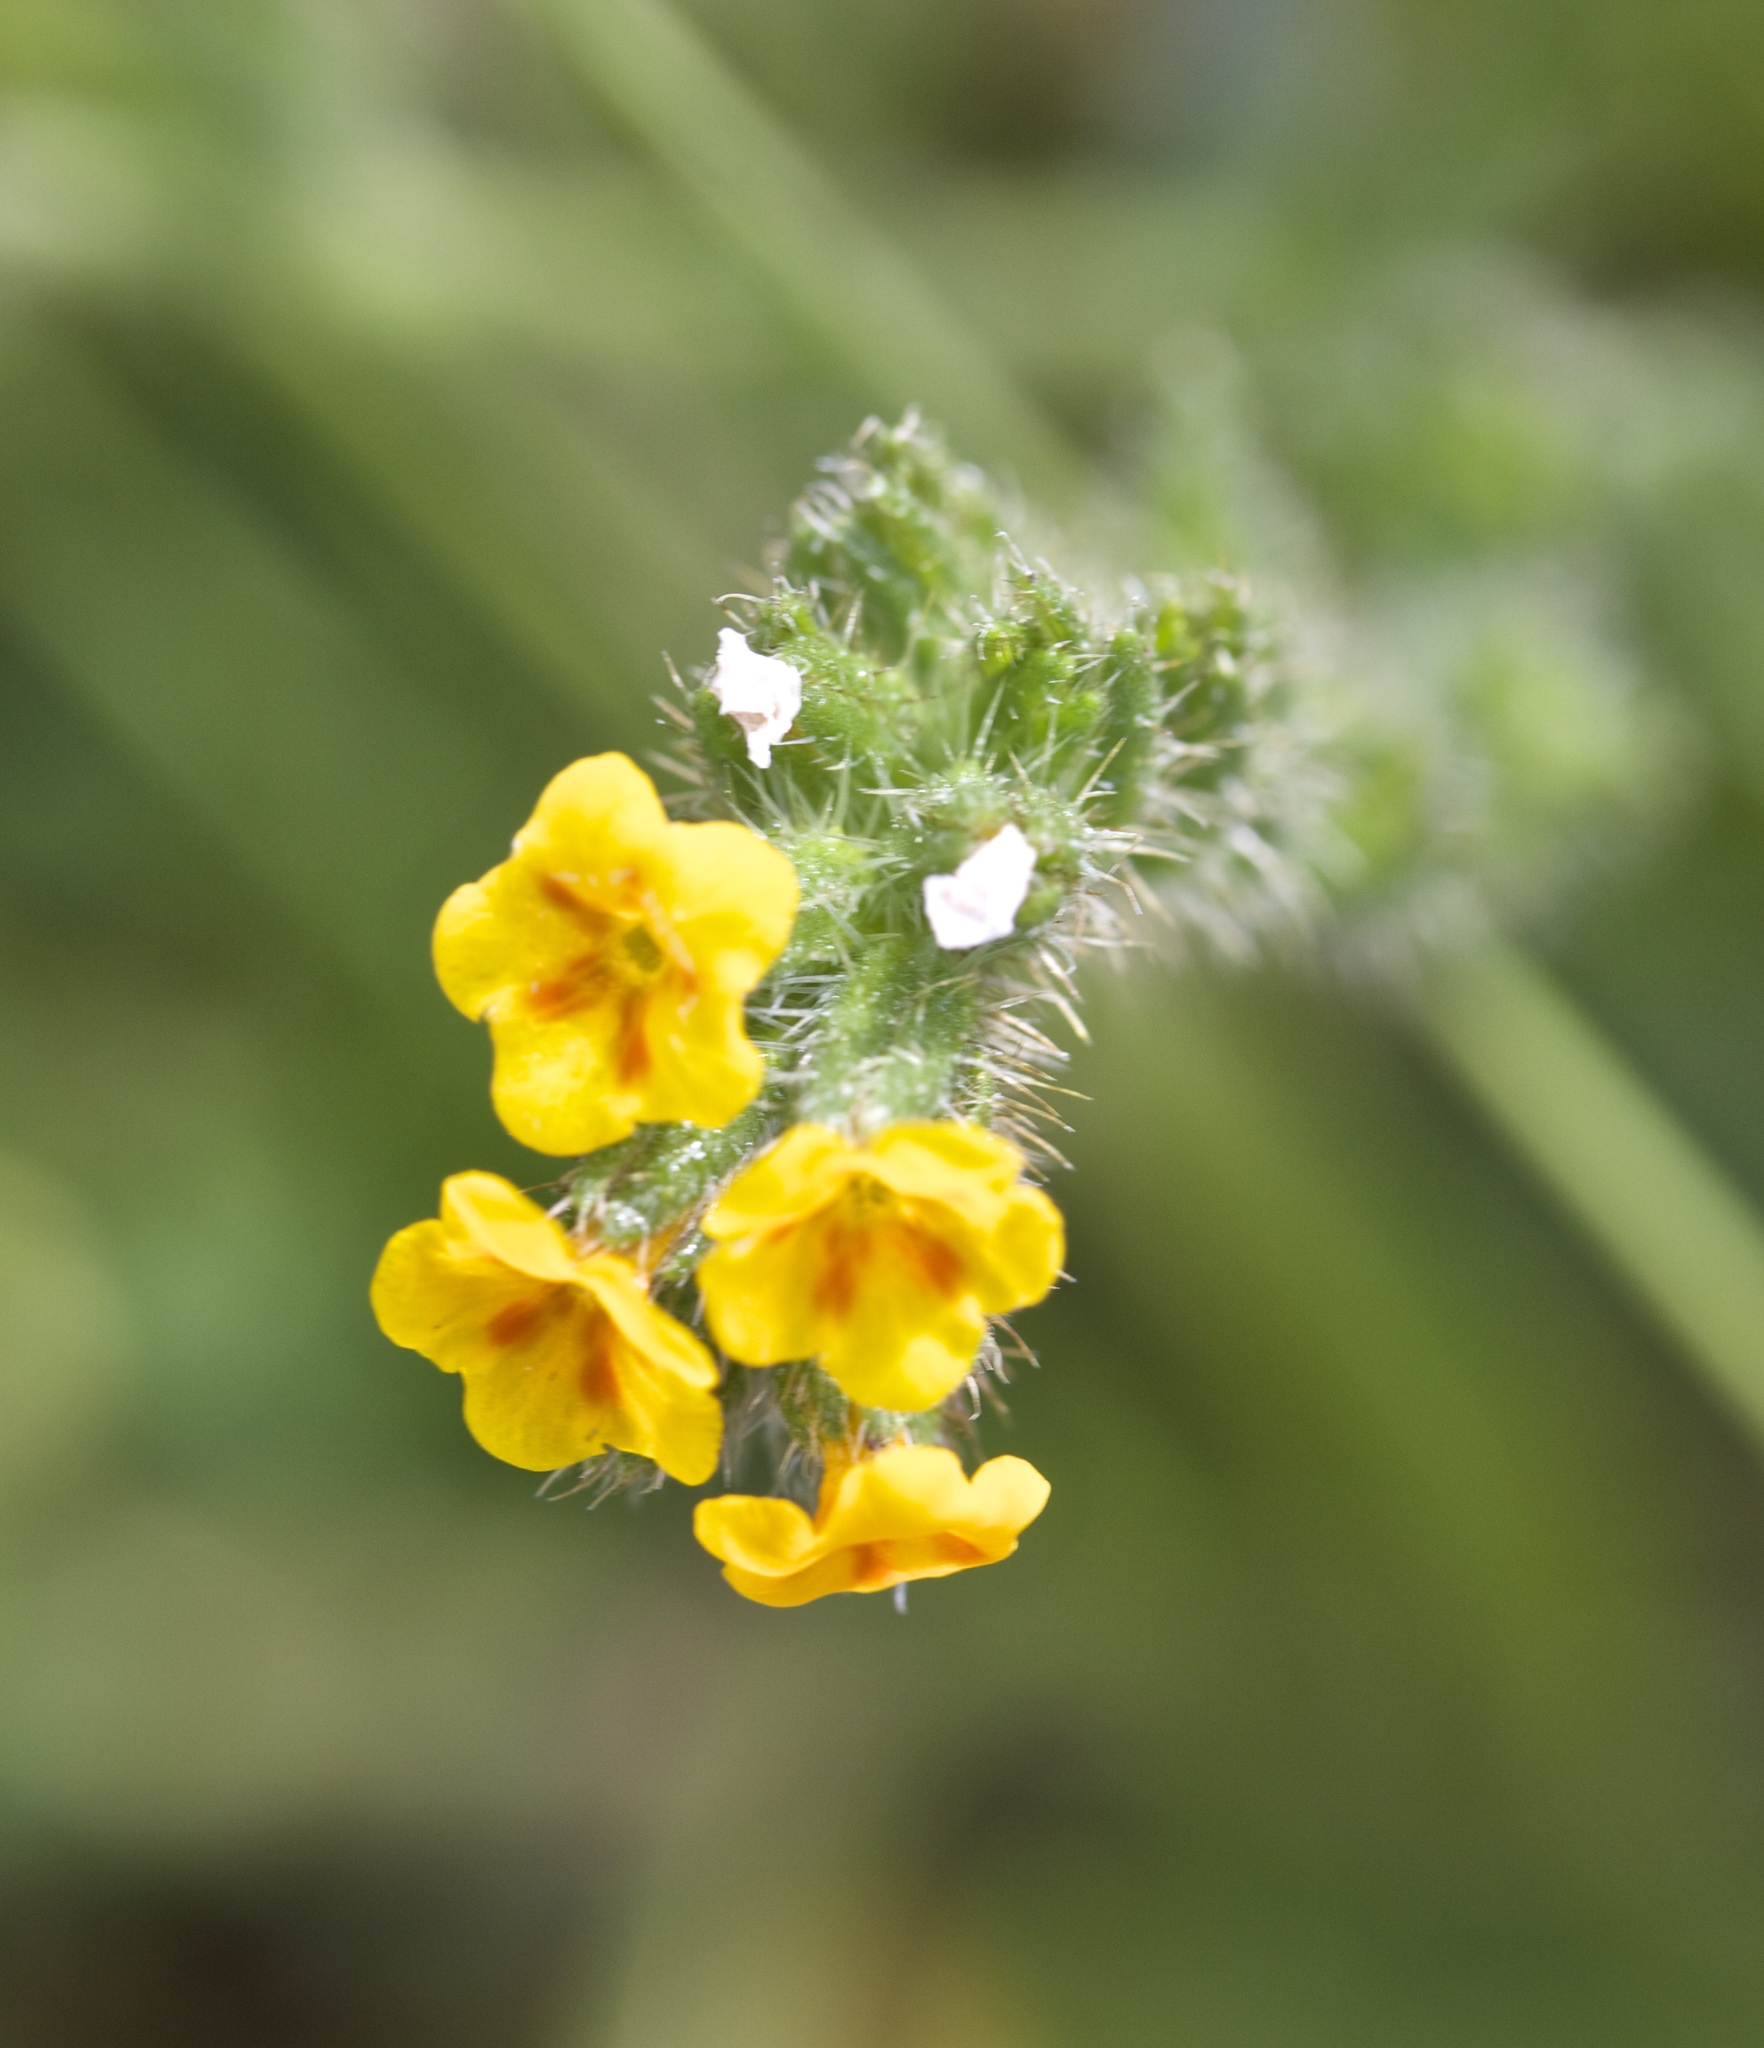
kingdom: Plantae
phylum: Tracheophyta
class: Magnoliopsida
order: Boraginales
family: Boraginaceae
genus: Amsinckia
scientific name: Amsinckia menziesii
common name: Menzies' fiddleneck
